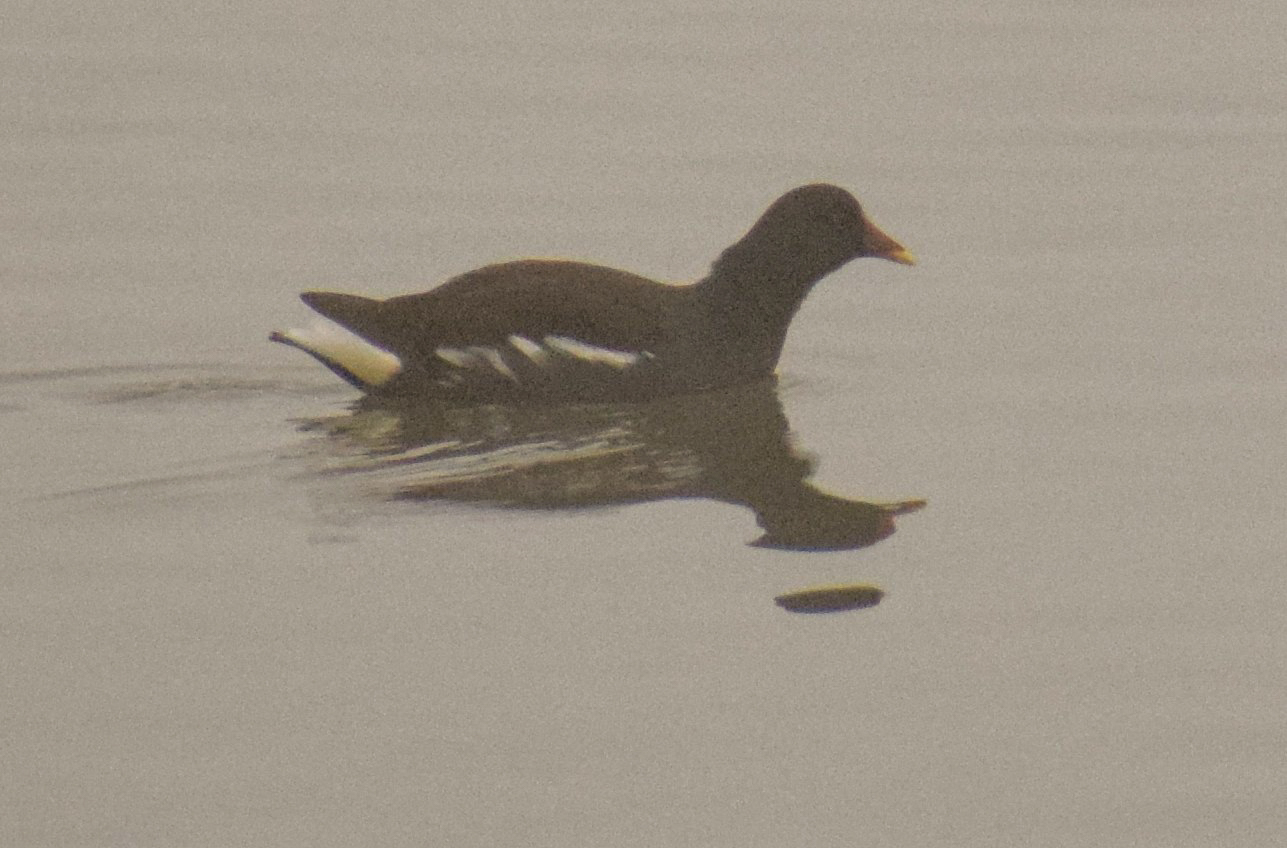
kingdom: Animalia
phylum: Chordata
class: Aves
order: Gruiformes
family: Rallidae
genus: Gallinula
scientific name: Gallinula chloropus
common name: Common moorhen
